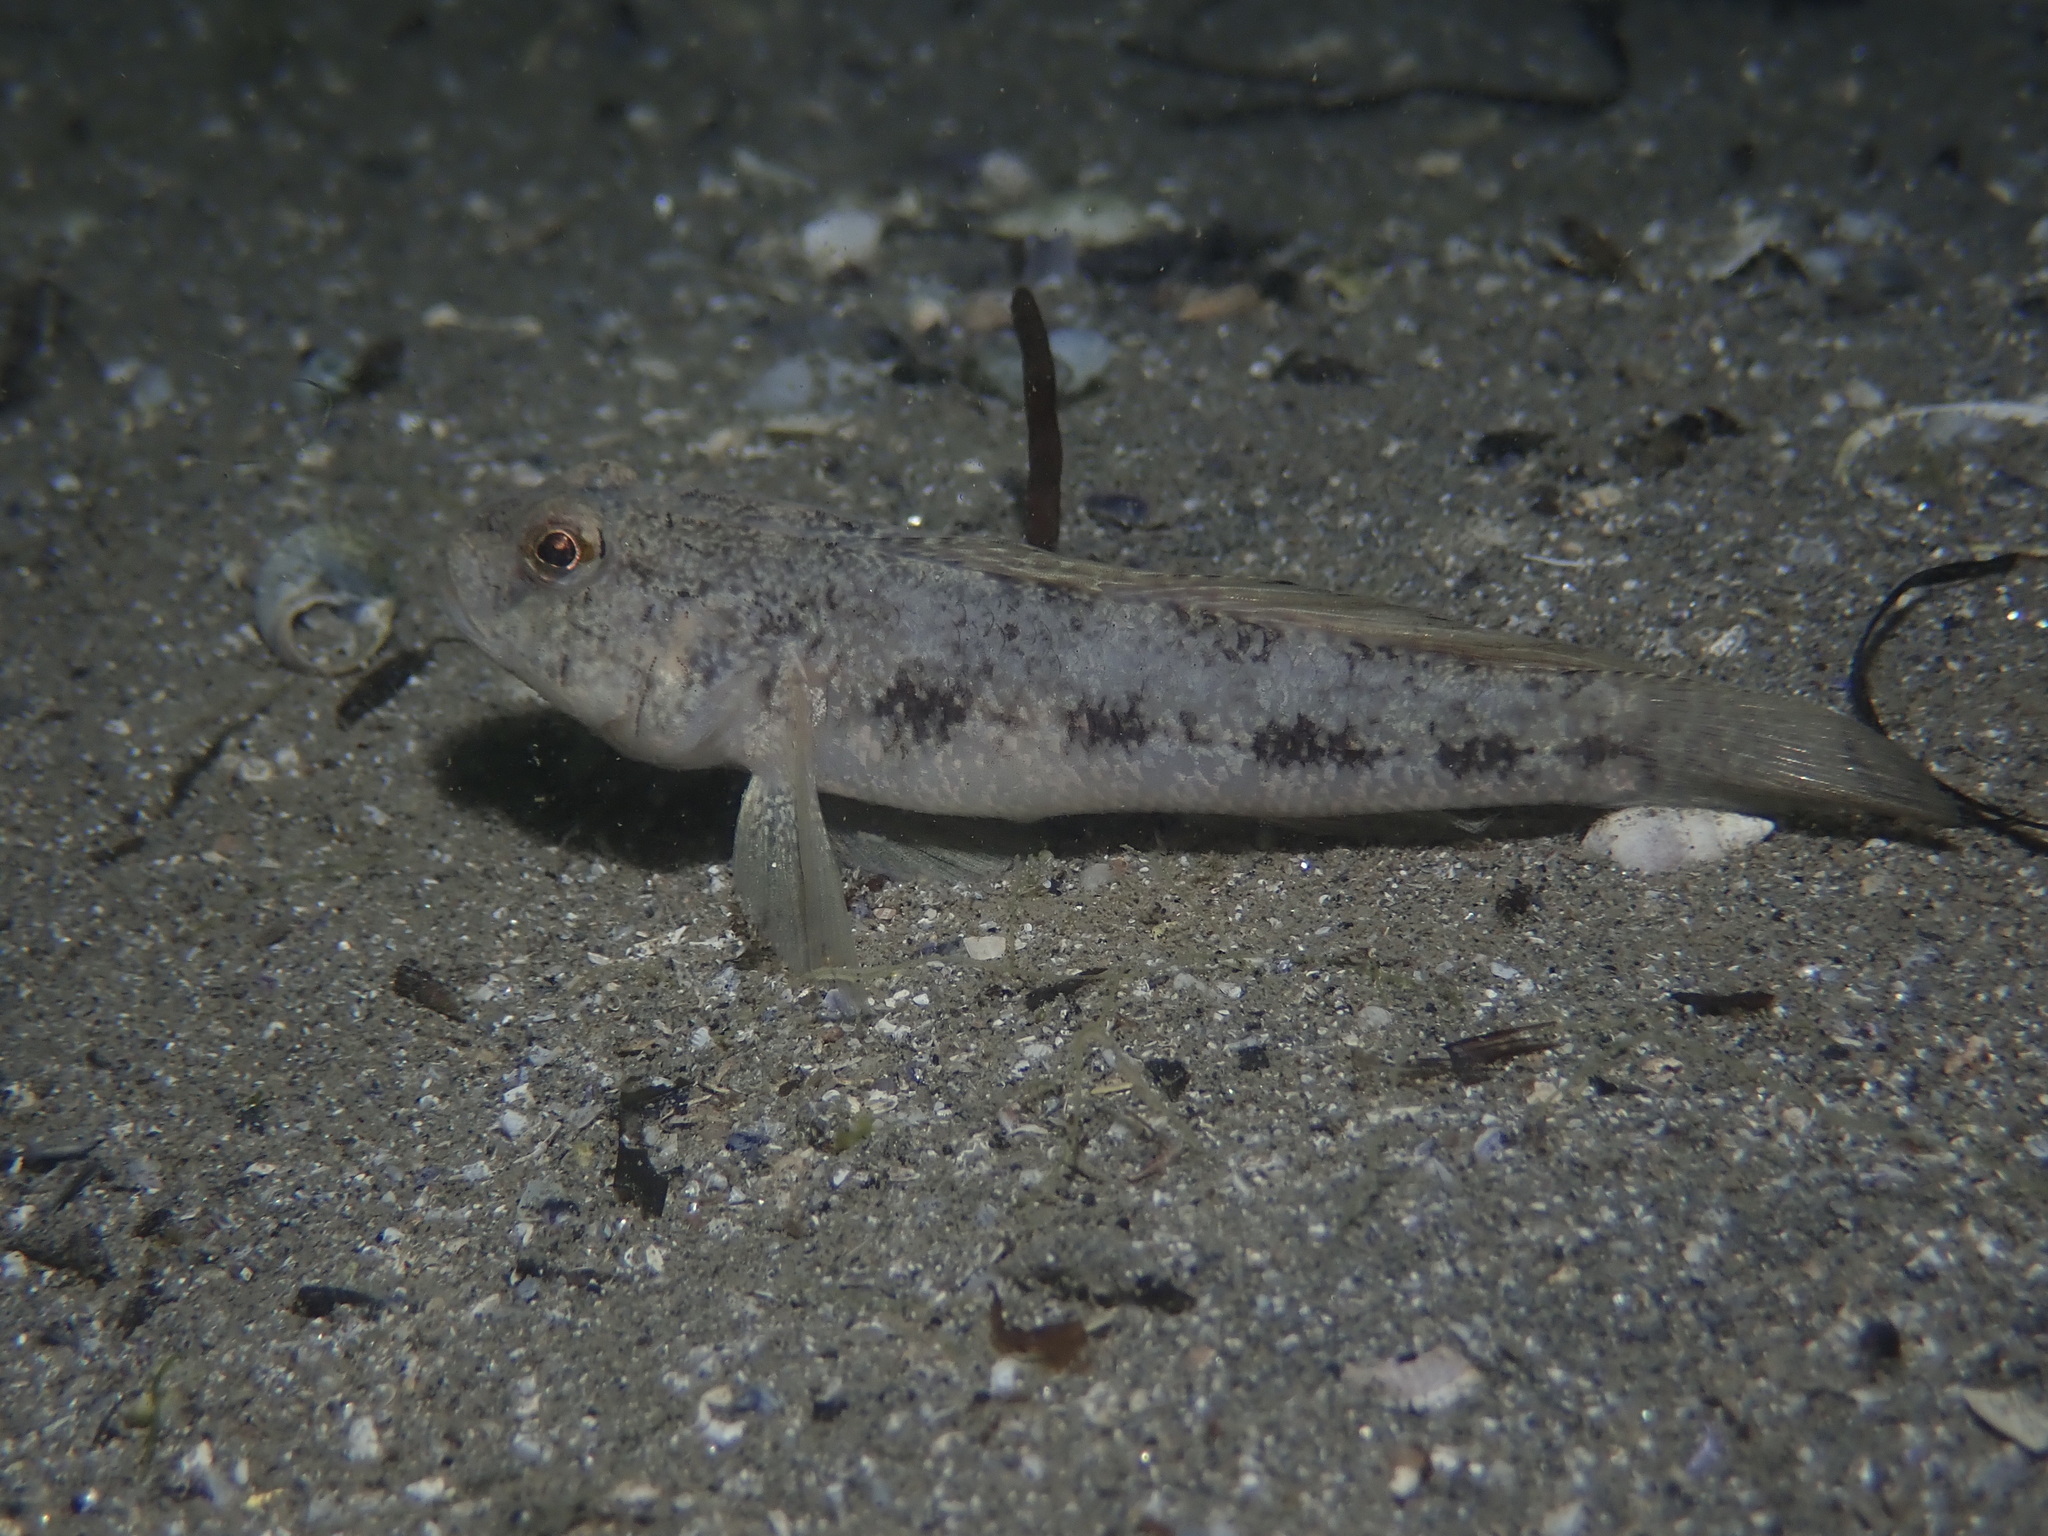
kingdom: Animalia
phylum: Chordata
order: Perciformes
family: Gobiidae
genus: Gobius
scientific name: Gobius niger
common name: Black goby
